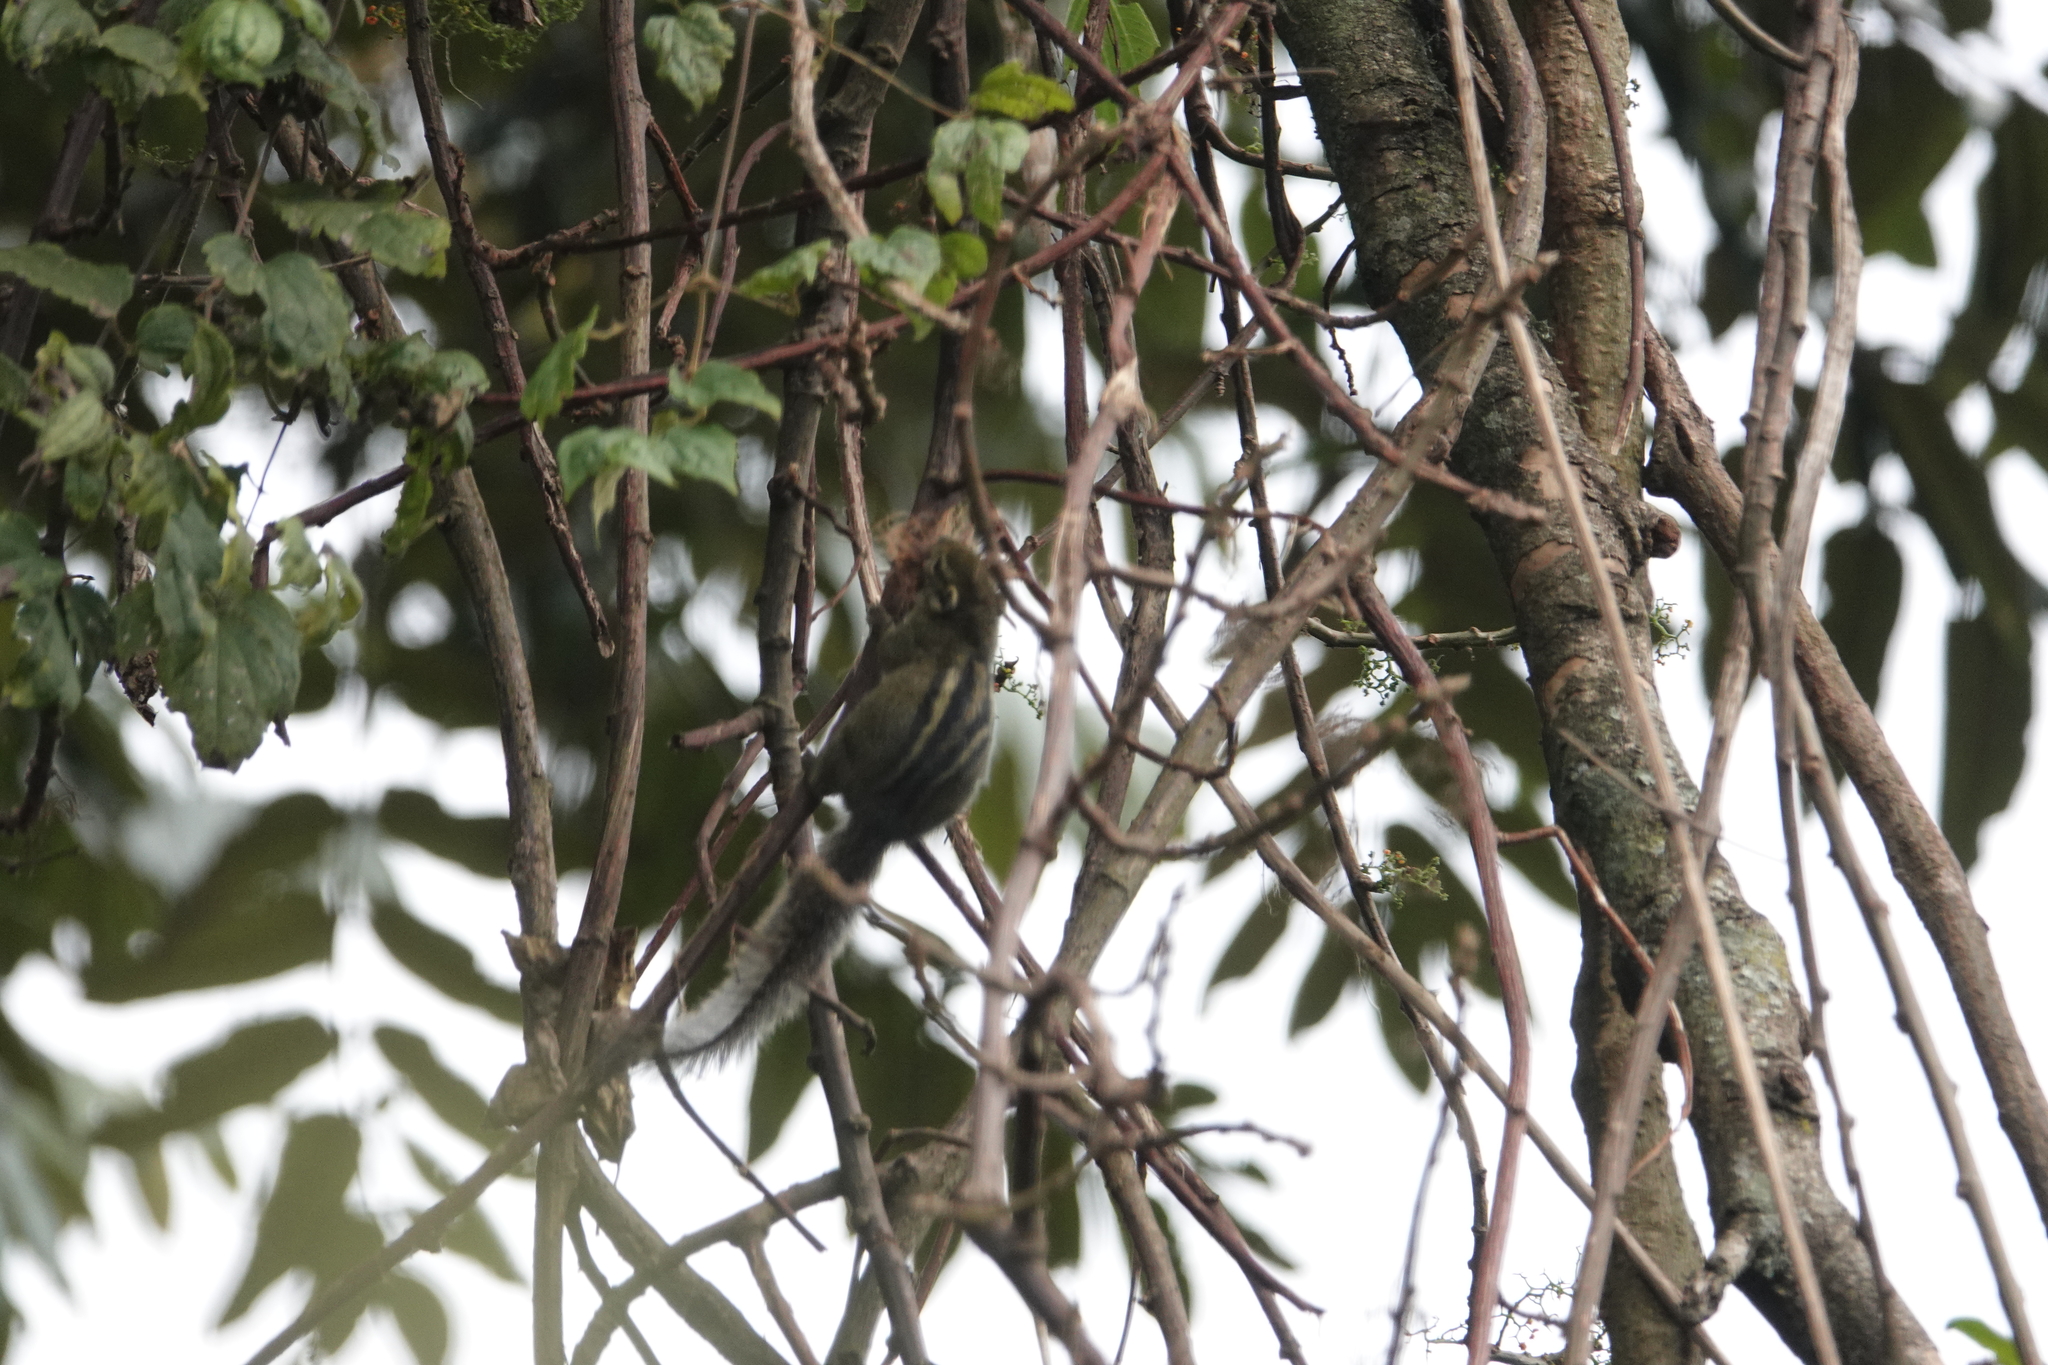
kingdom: Animalia
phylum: Chordata
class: Mammalia
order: Rodentia
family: Sciuridae
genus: Paraxerus
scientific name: Paraxerus boehmi
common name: Boehm's bush squirrel
